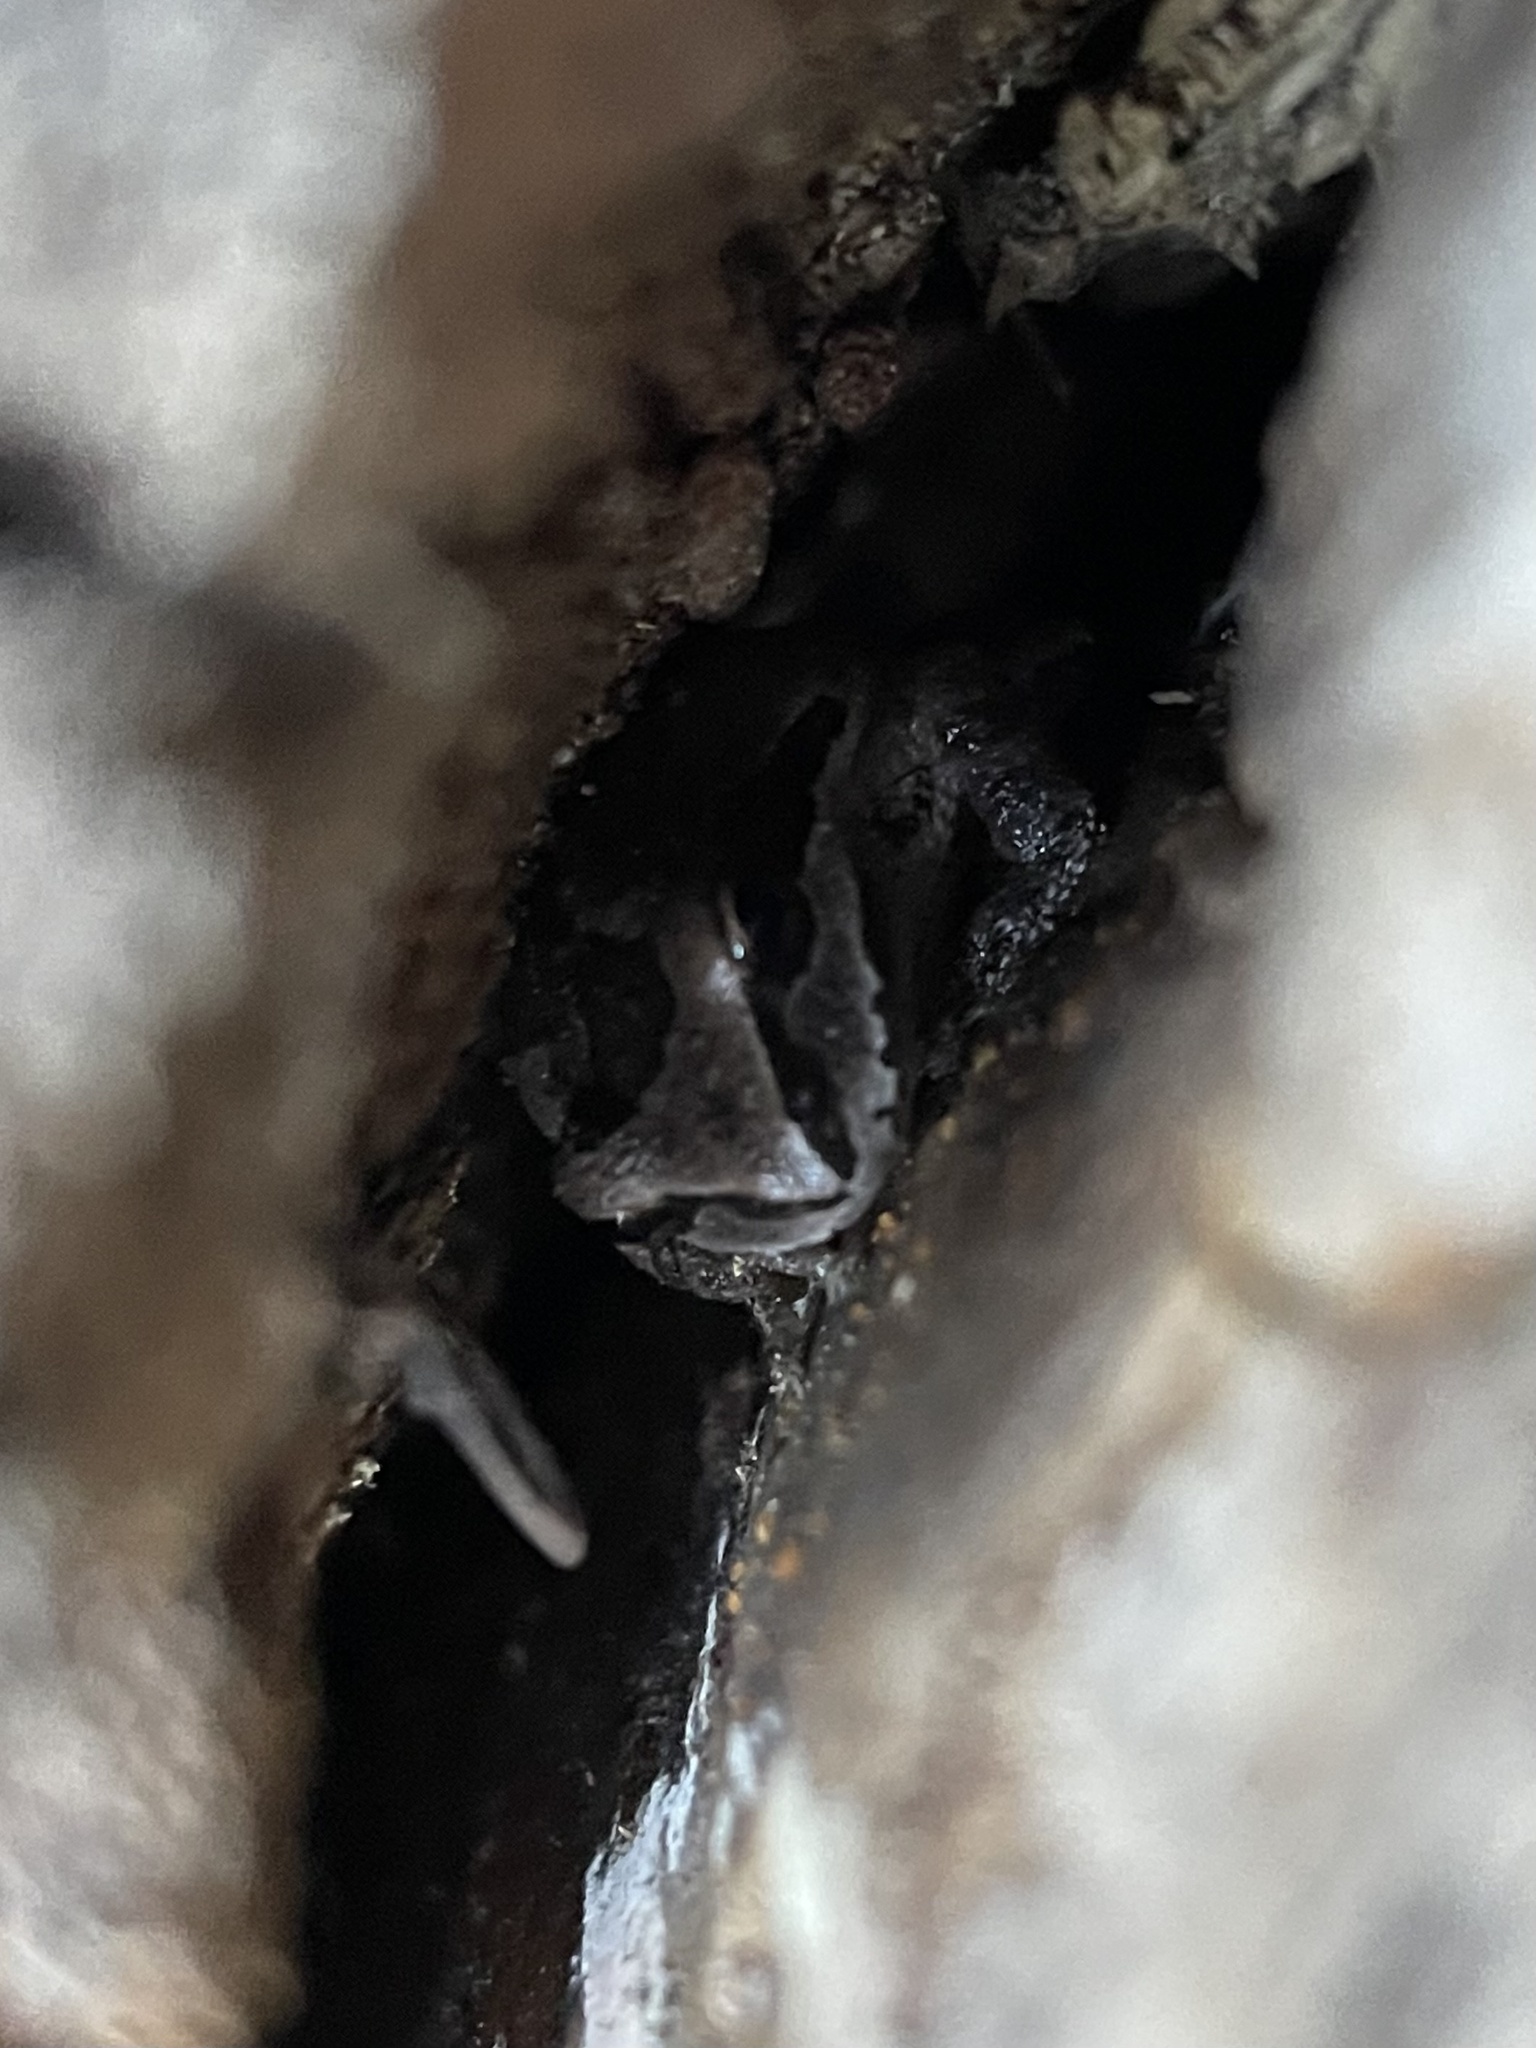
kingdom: Animalia
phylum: Chordata
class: Amphibia
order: Anura
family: Hylidae
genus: Pseudacris
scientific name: Pseudacris regilla
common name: Pacific chorus frog
